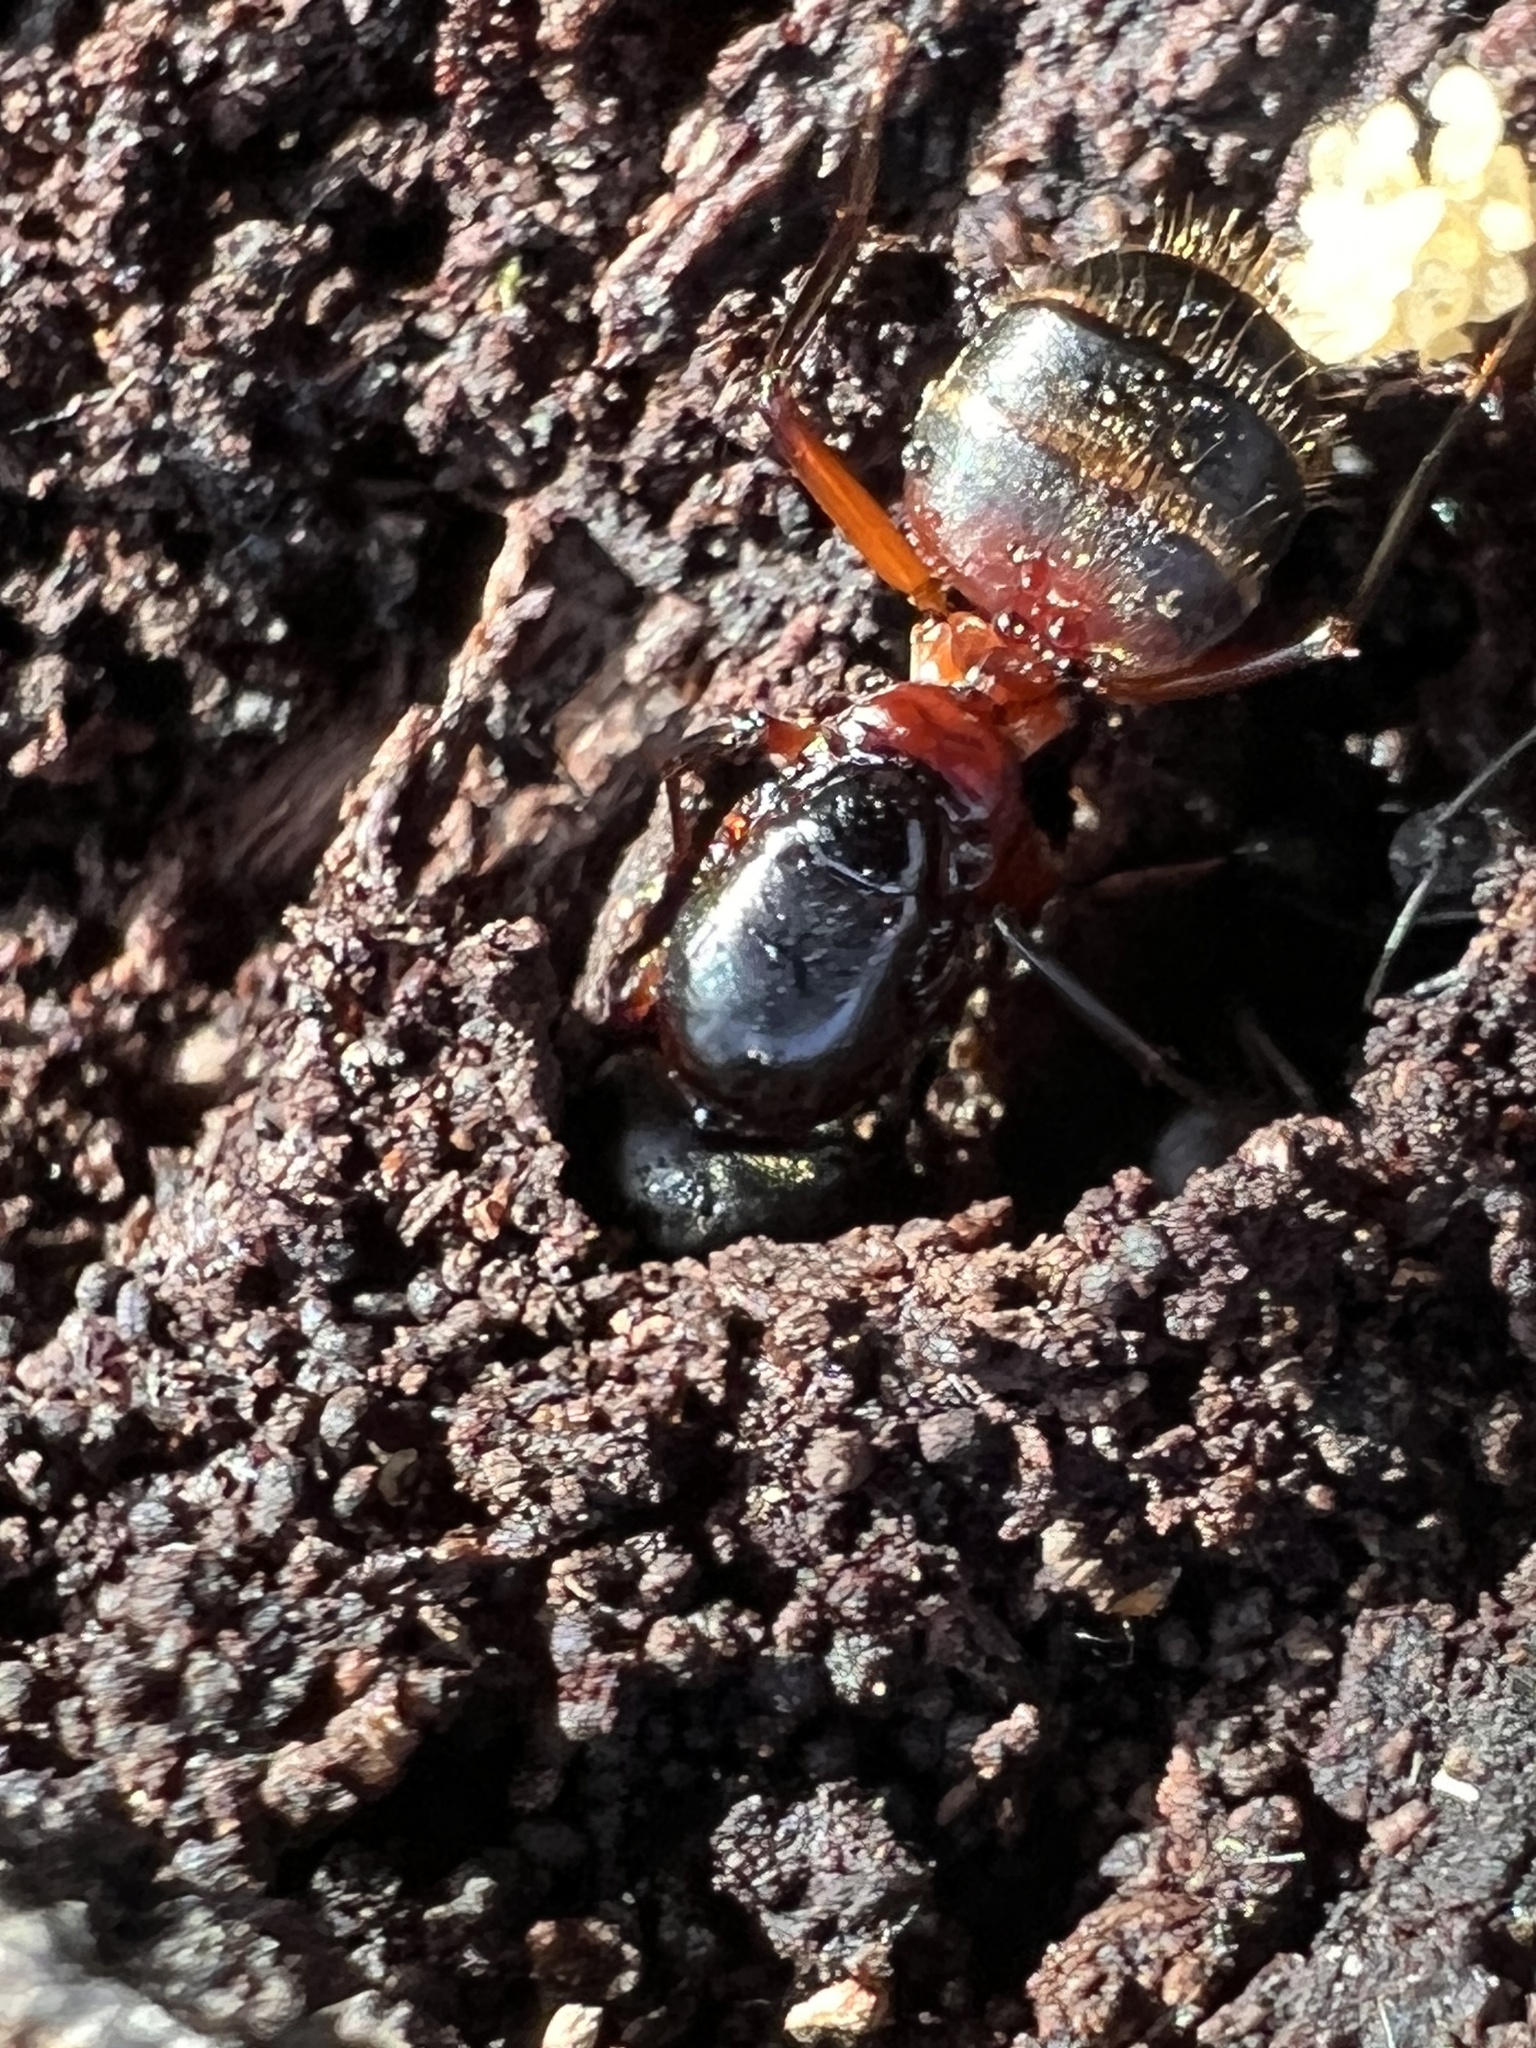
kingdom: Animalia
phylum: Arthropoda
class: Insecta
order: Hymenoptera
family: Formicidae
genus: Camponotus
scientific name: Camponotus chromaiodes
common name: Red carpenter ant
